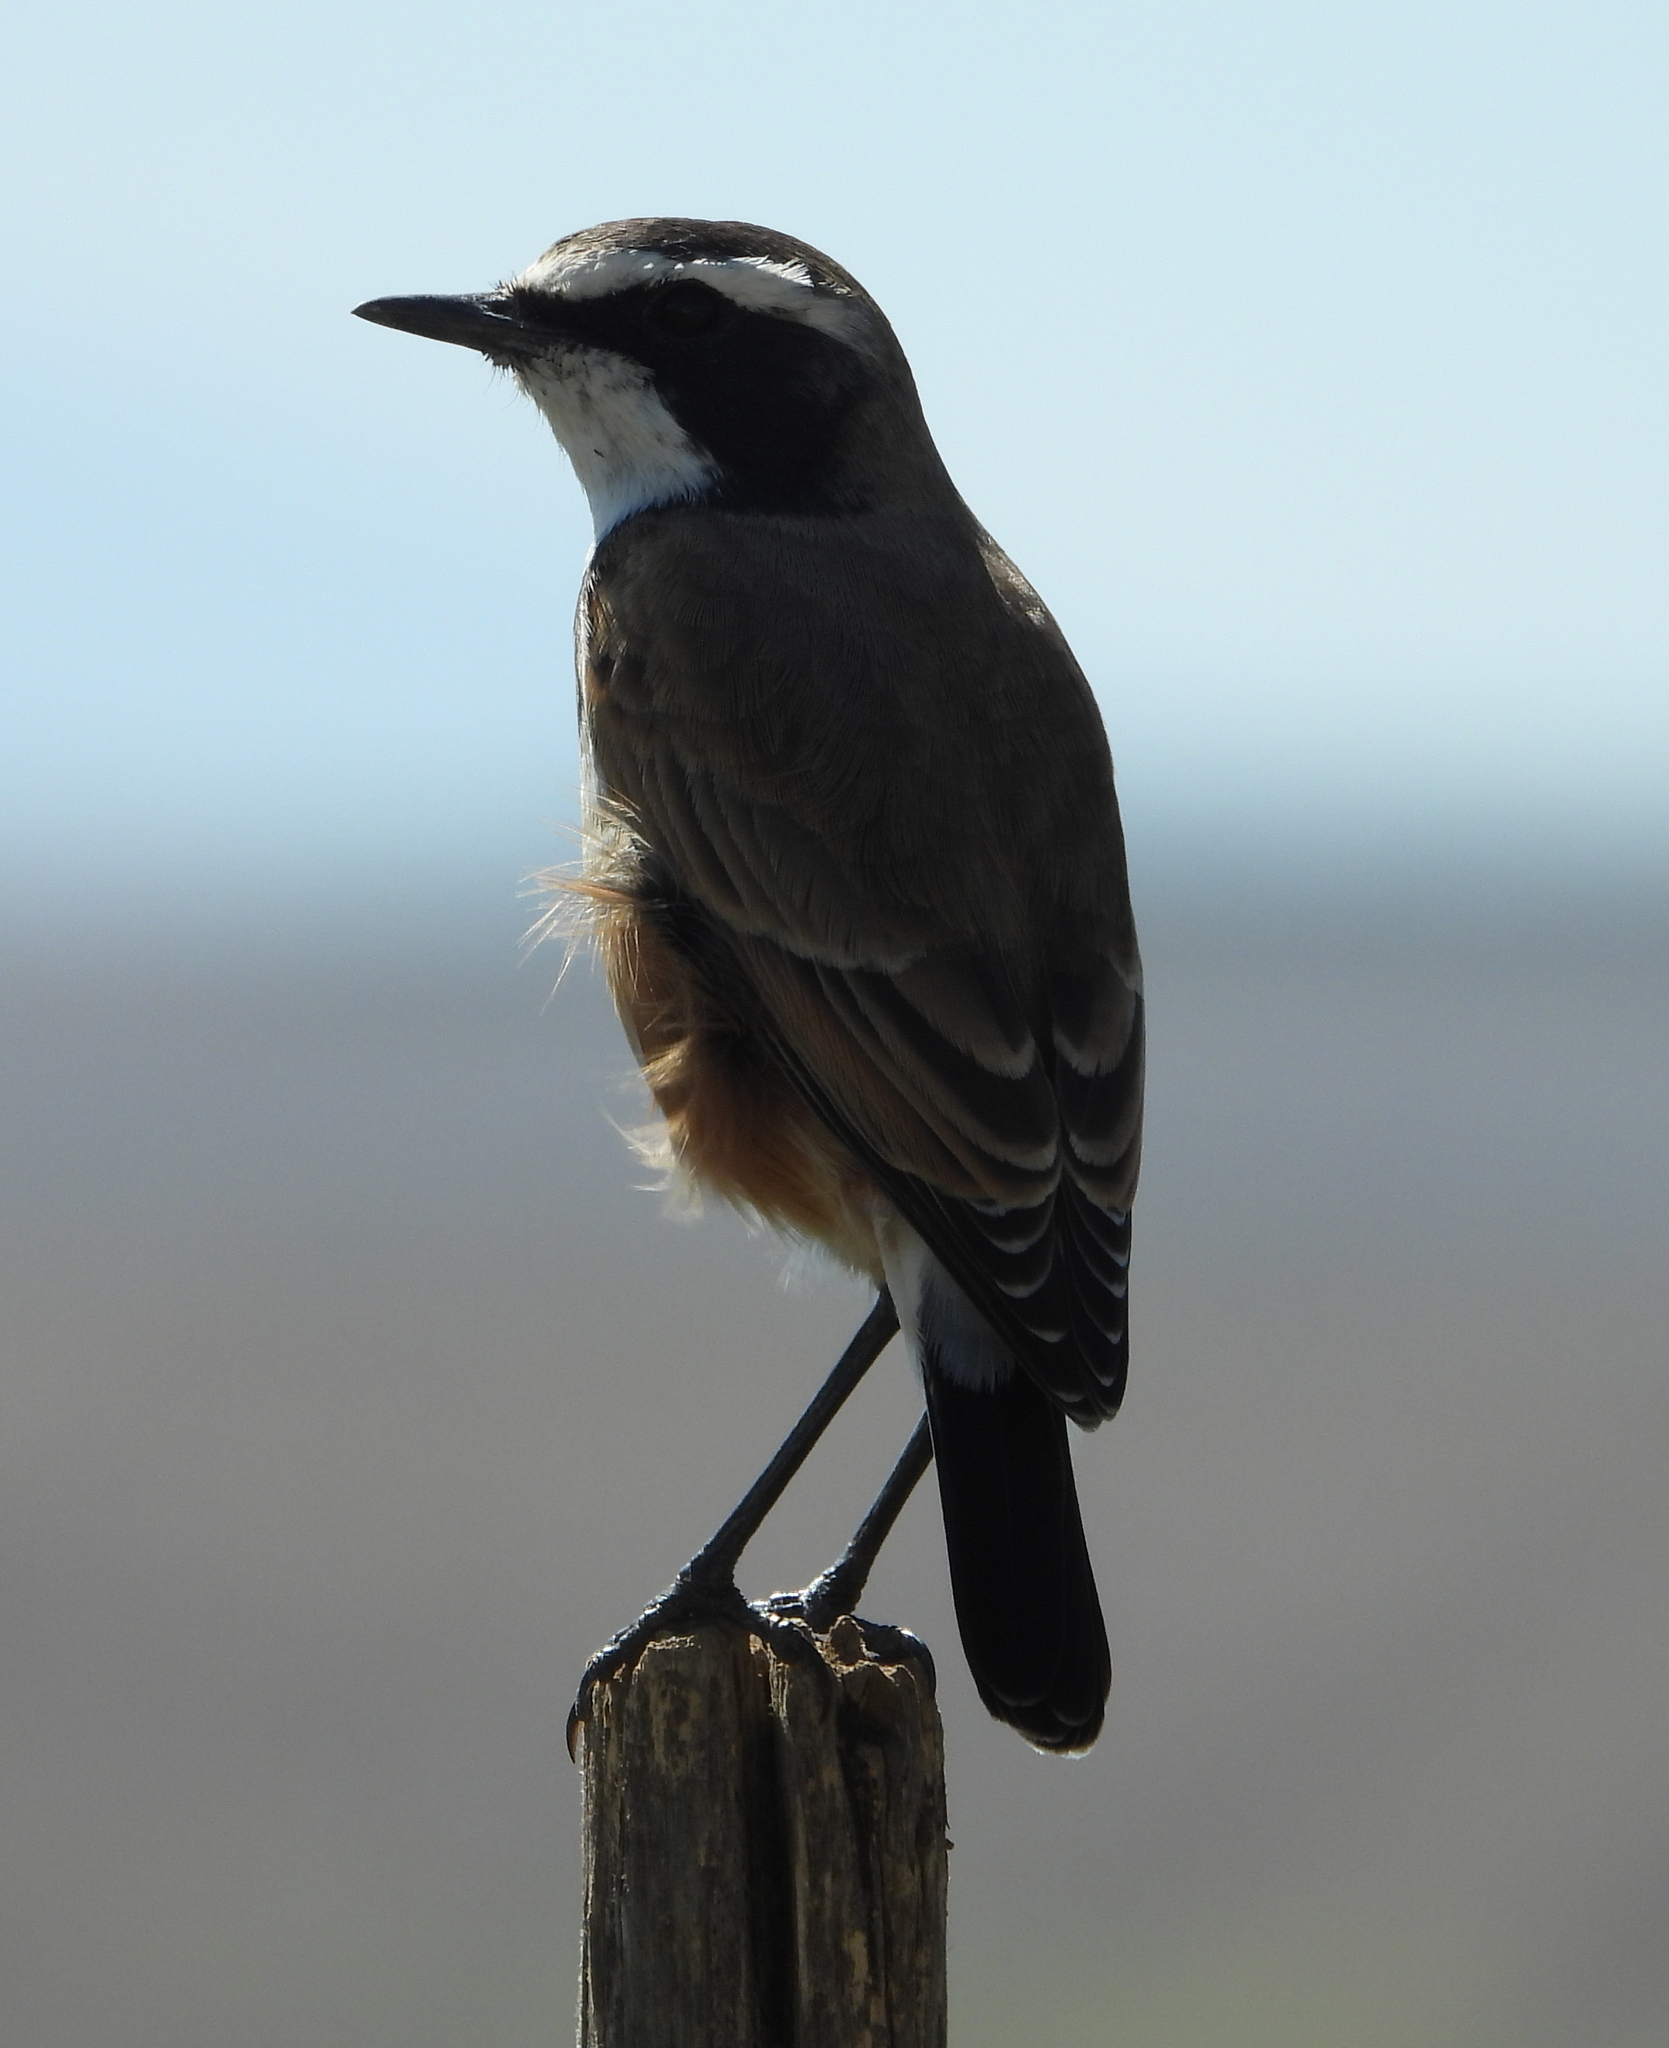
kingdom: Animalia
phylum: Chordata
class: Aves
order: Passeriformes
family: Muscicapidae
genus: Oenanthe
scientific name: Oenanthe pileata
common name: Capped wheatear
